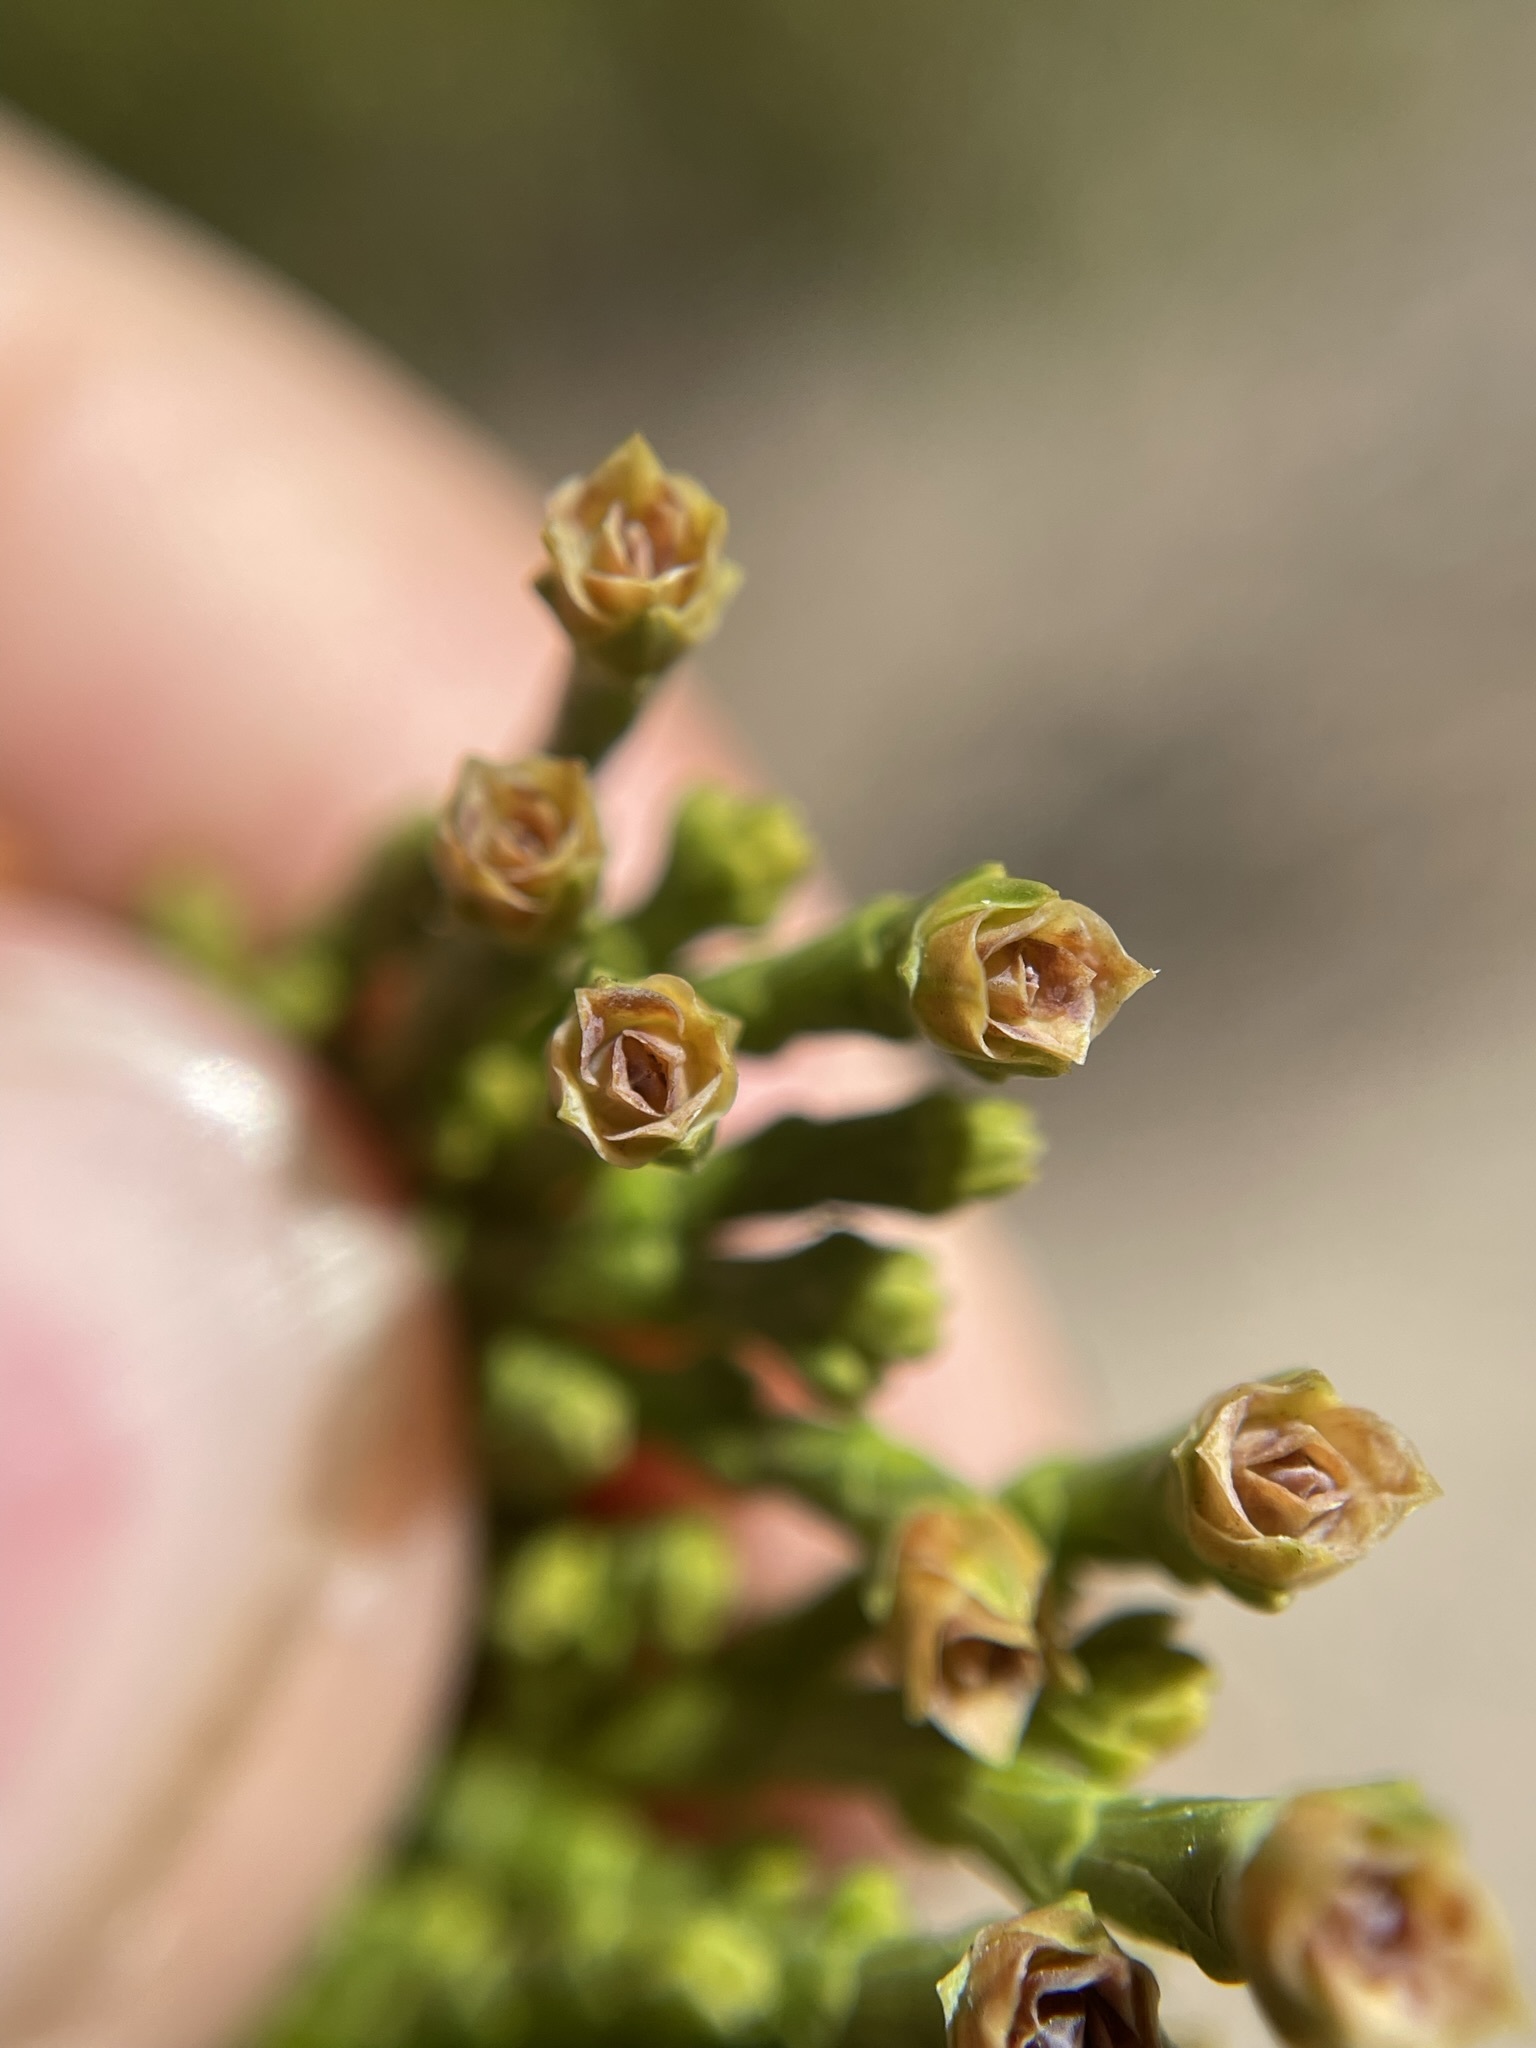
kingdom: Plantae
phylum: Tracheophyta
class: Pinopsida
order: Pinales
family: Cupressaceae
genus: Calocedrus
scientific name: Calocedrus decurrens
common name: Californian incense-cedar
